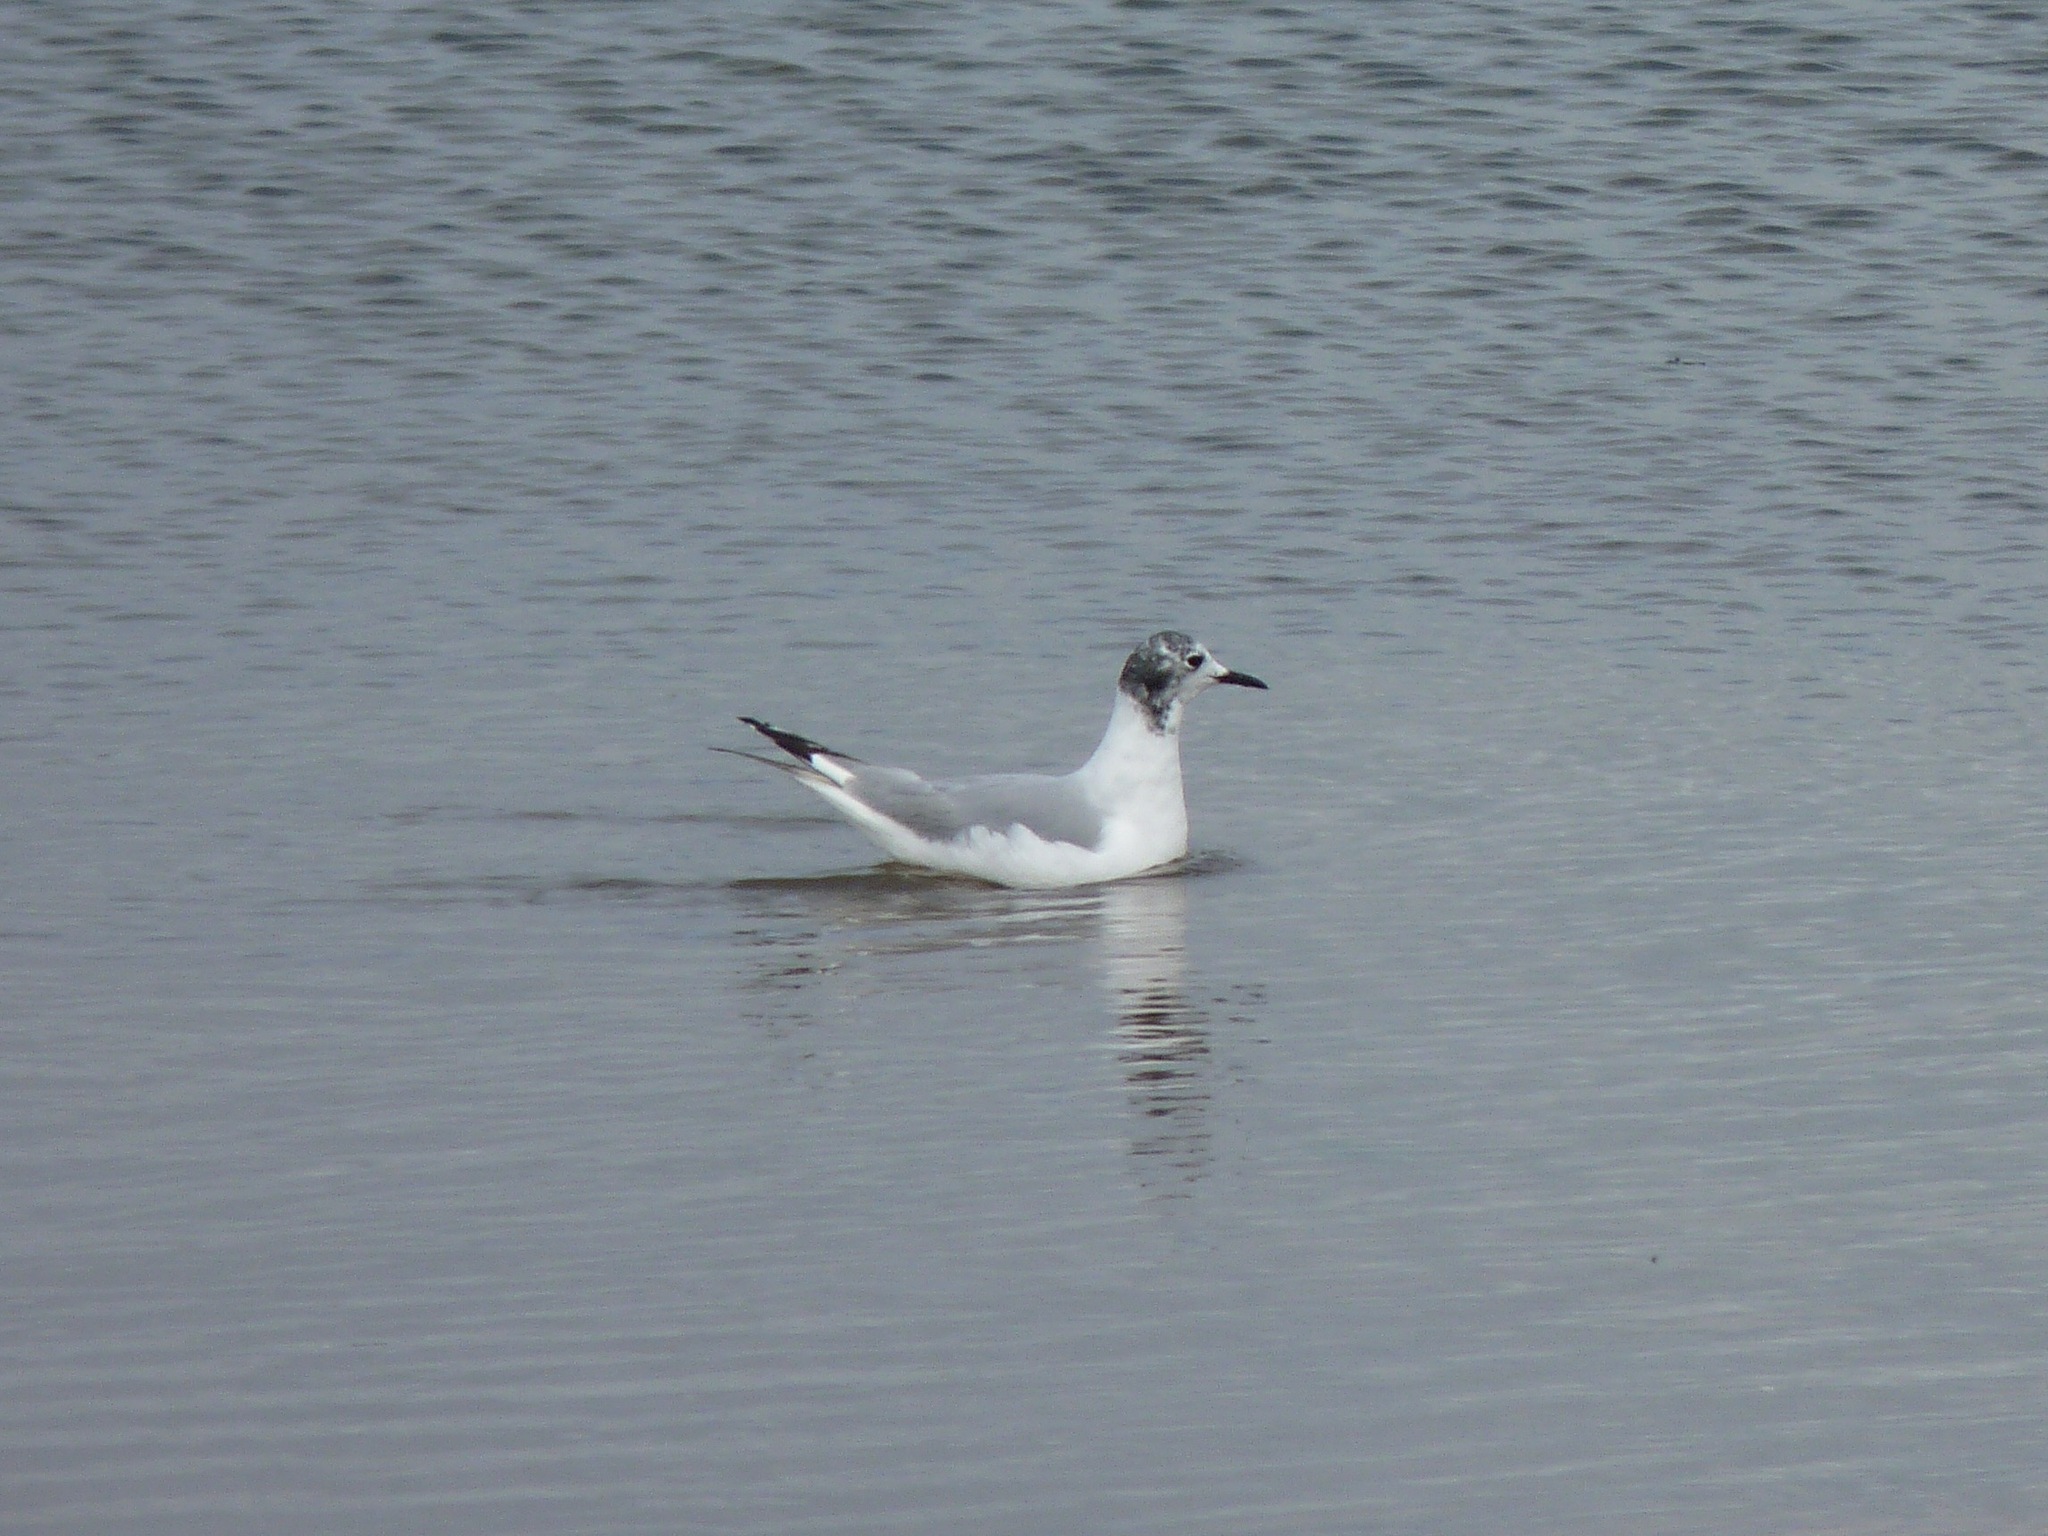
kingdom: Animalia
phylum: Chordata
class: Aves
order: Charadriiformes
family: Laridae
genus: Chroicocephalus
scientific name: Chroicocephalus philadelphia
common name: Bonaparte's gull
